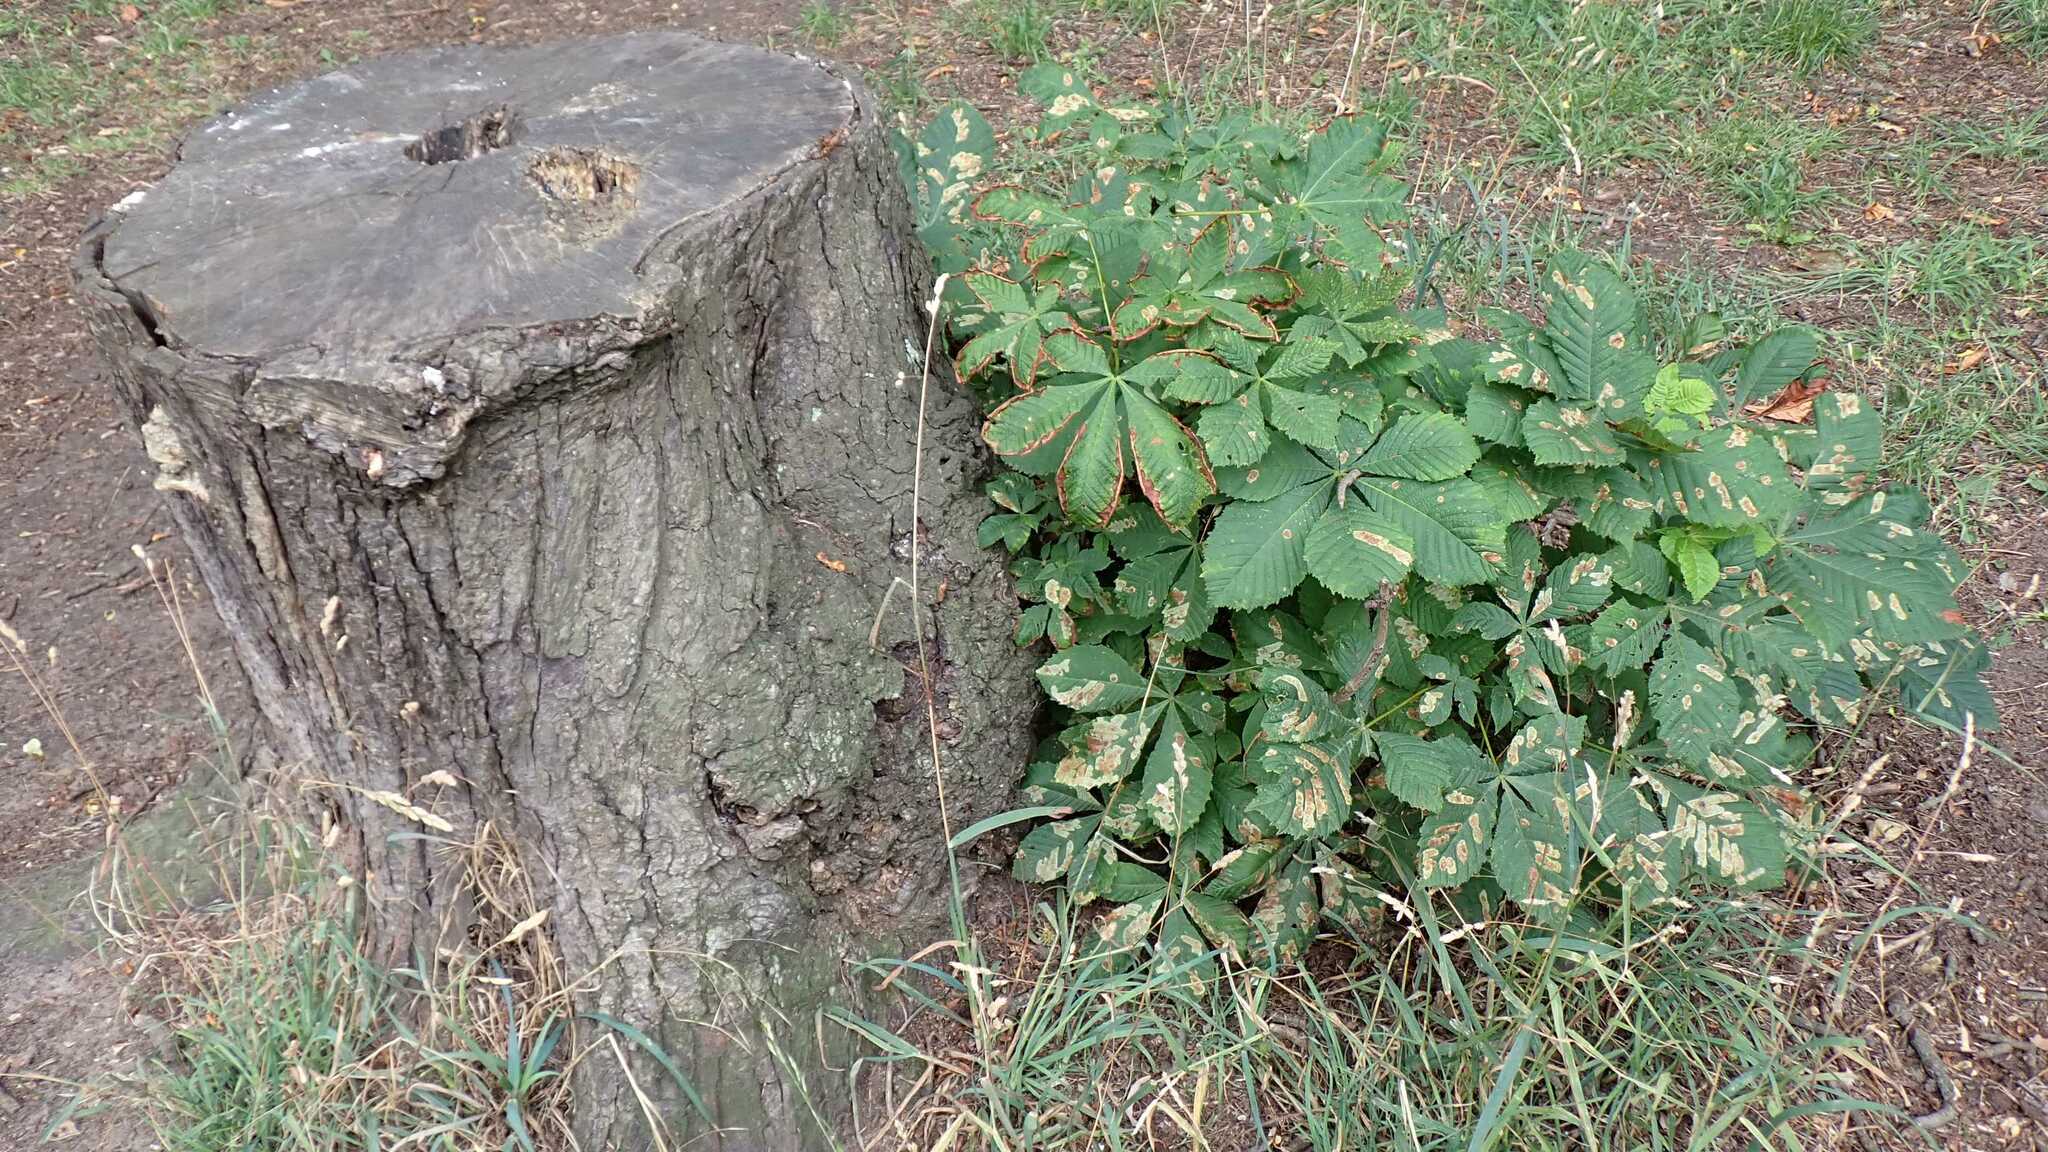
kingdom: Animalia
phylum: Arthropoda
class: Insecta
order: Lepidoptera
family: Gracillariidae
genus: Cameraria
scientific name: Cameraria ohridella
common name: Horse-chestnut leaf-miner
